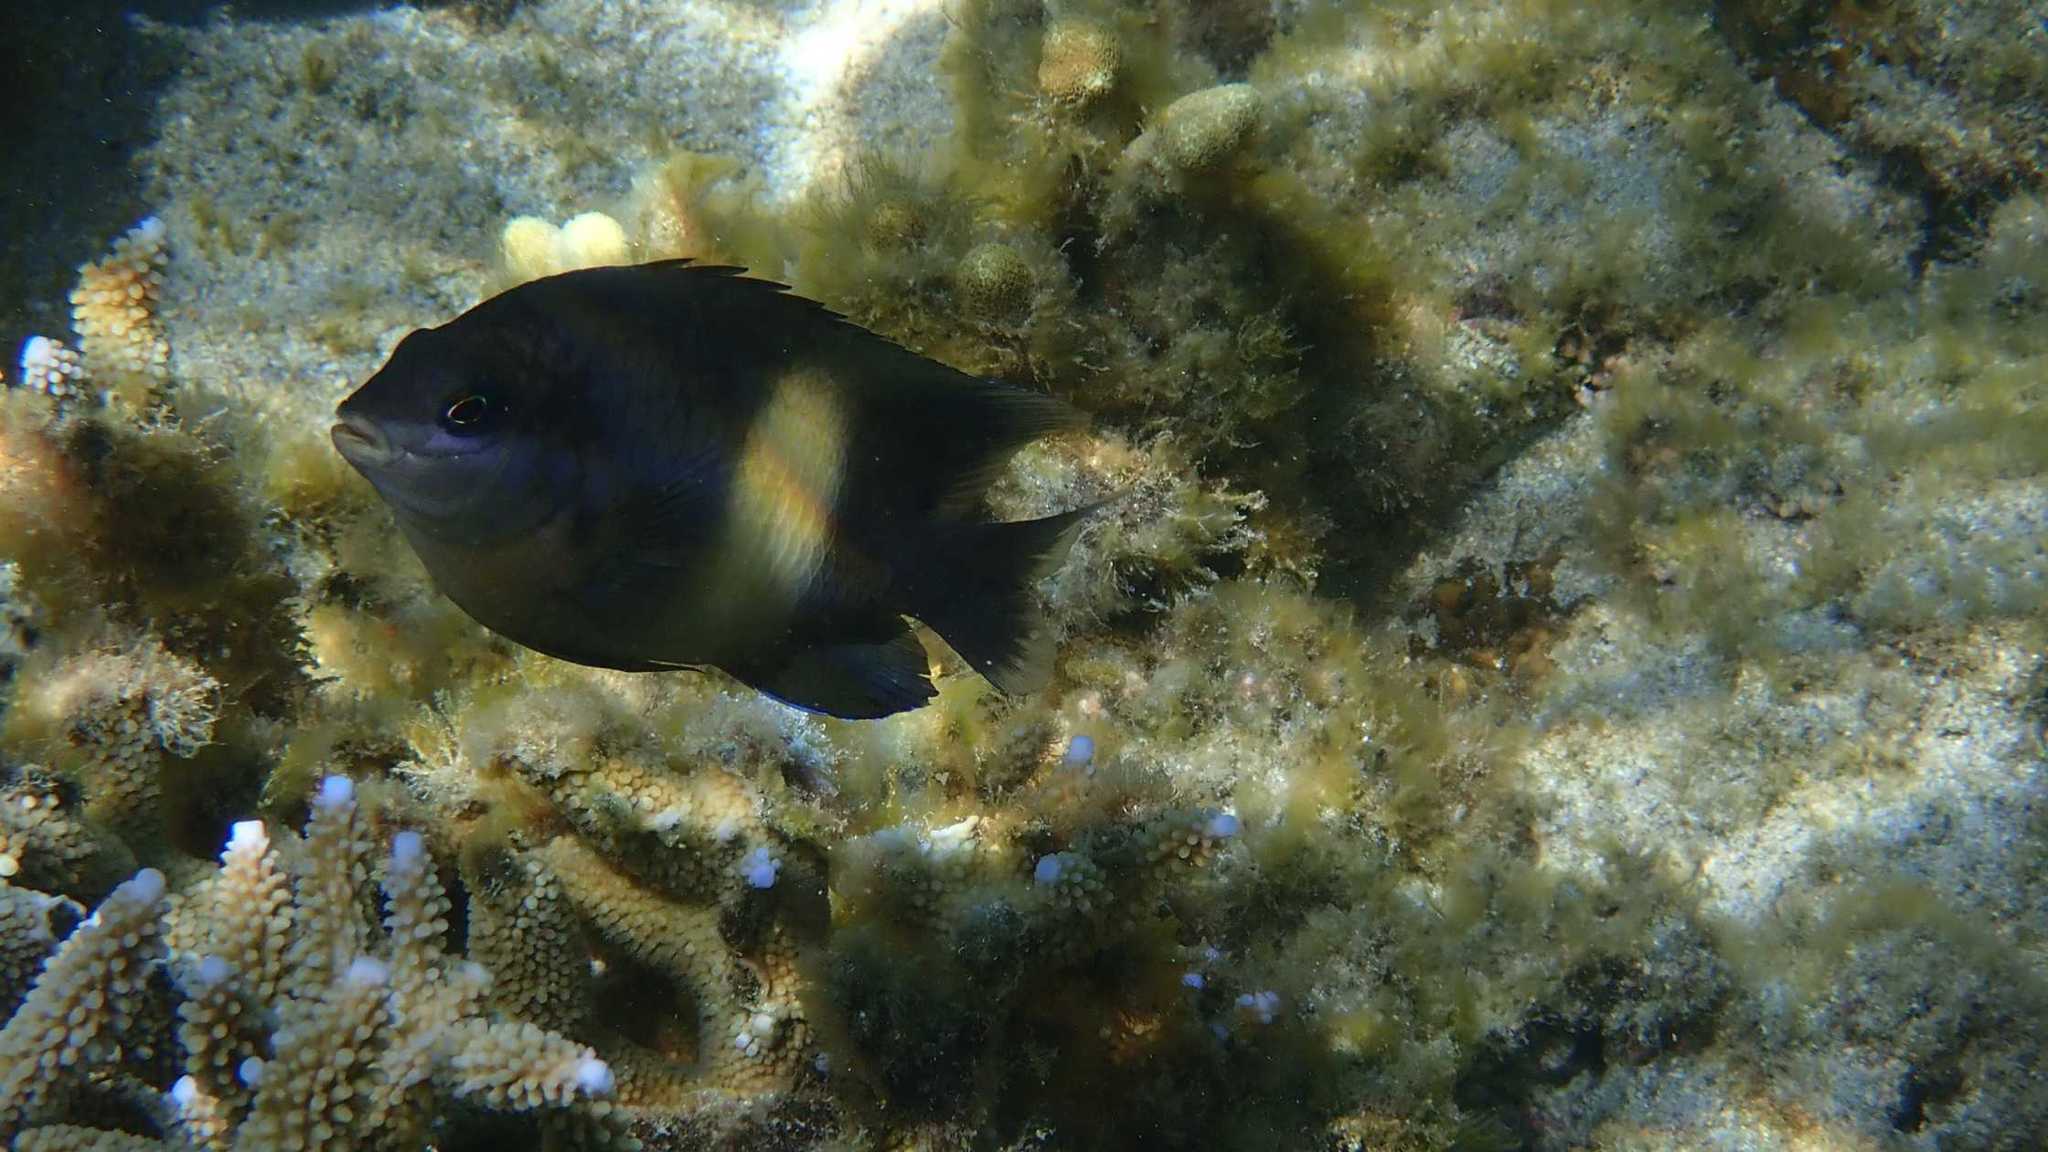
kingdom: Animalia
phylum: Chordata
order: Perciformes
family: Pomacentridae
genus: Stegastes
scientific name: Stegastes nigricans
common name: Dusky gregory
